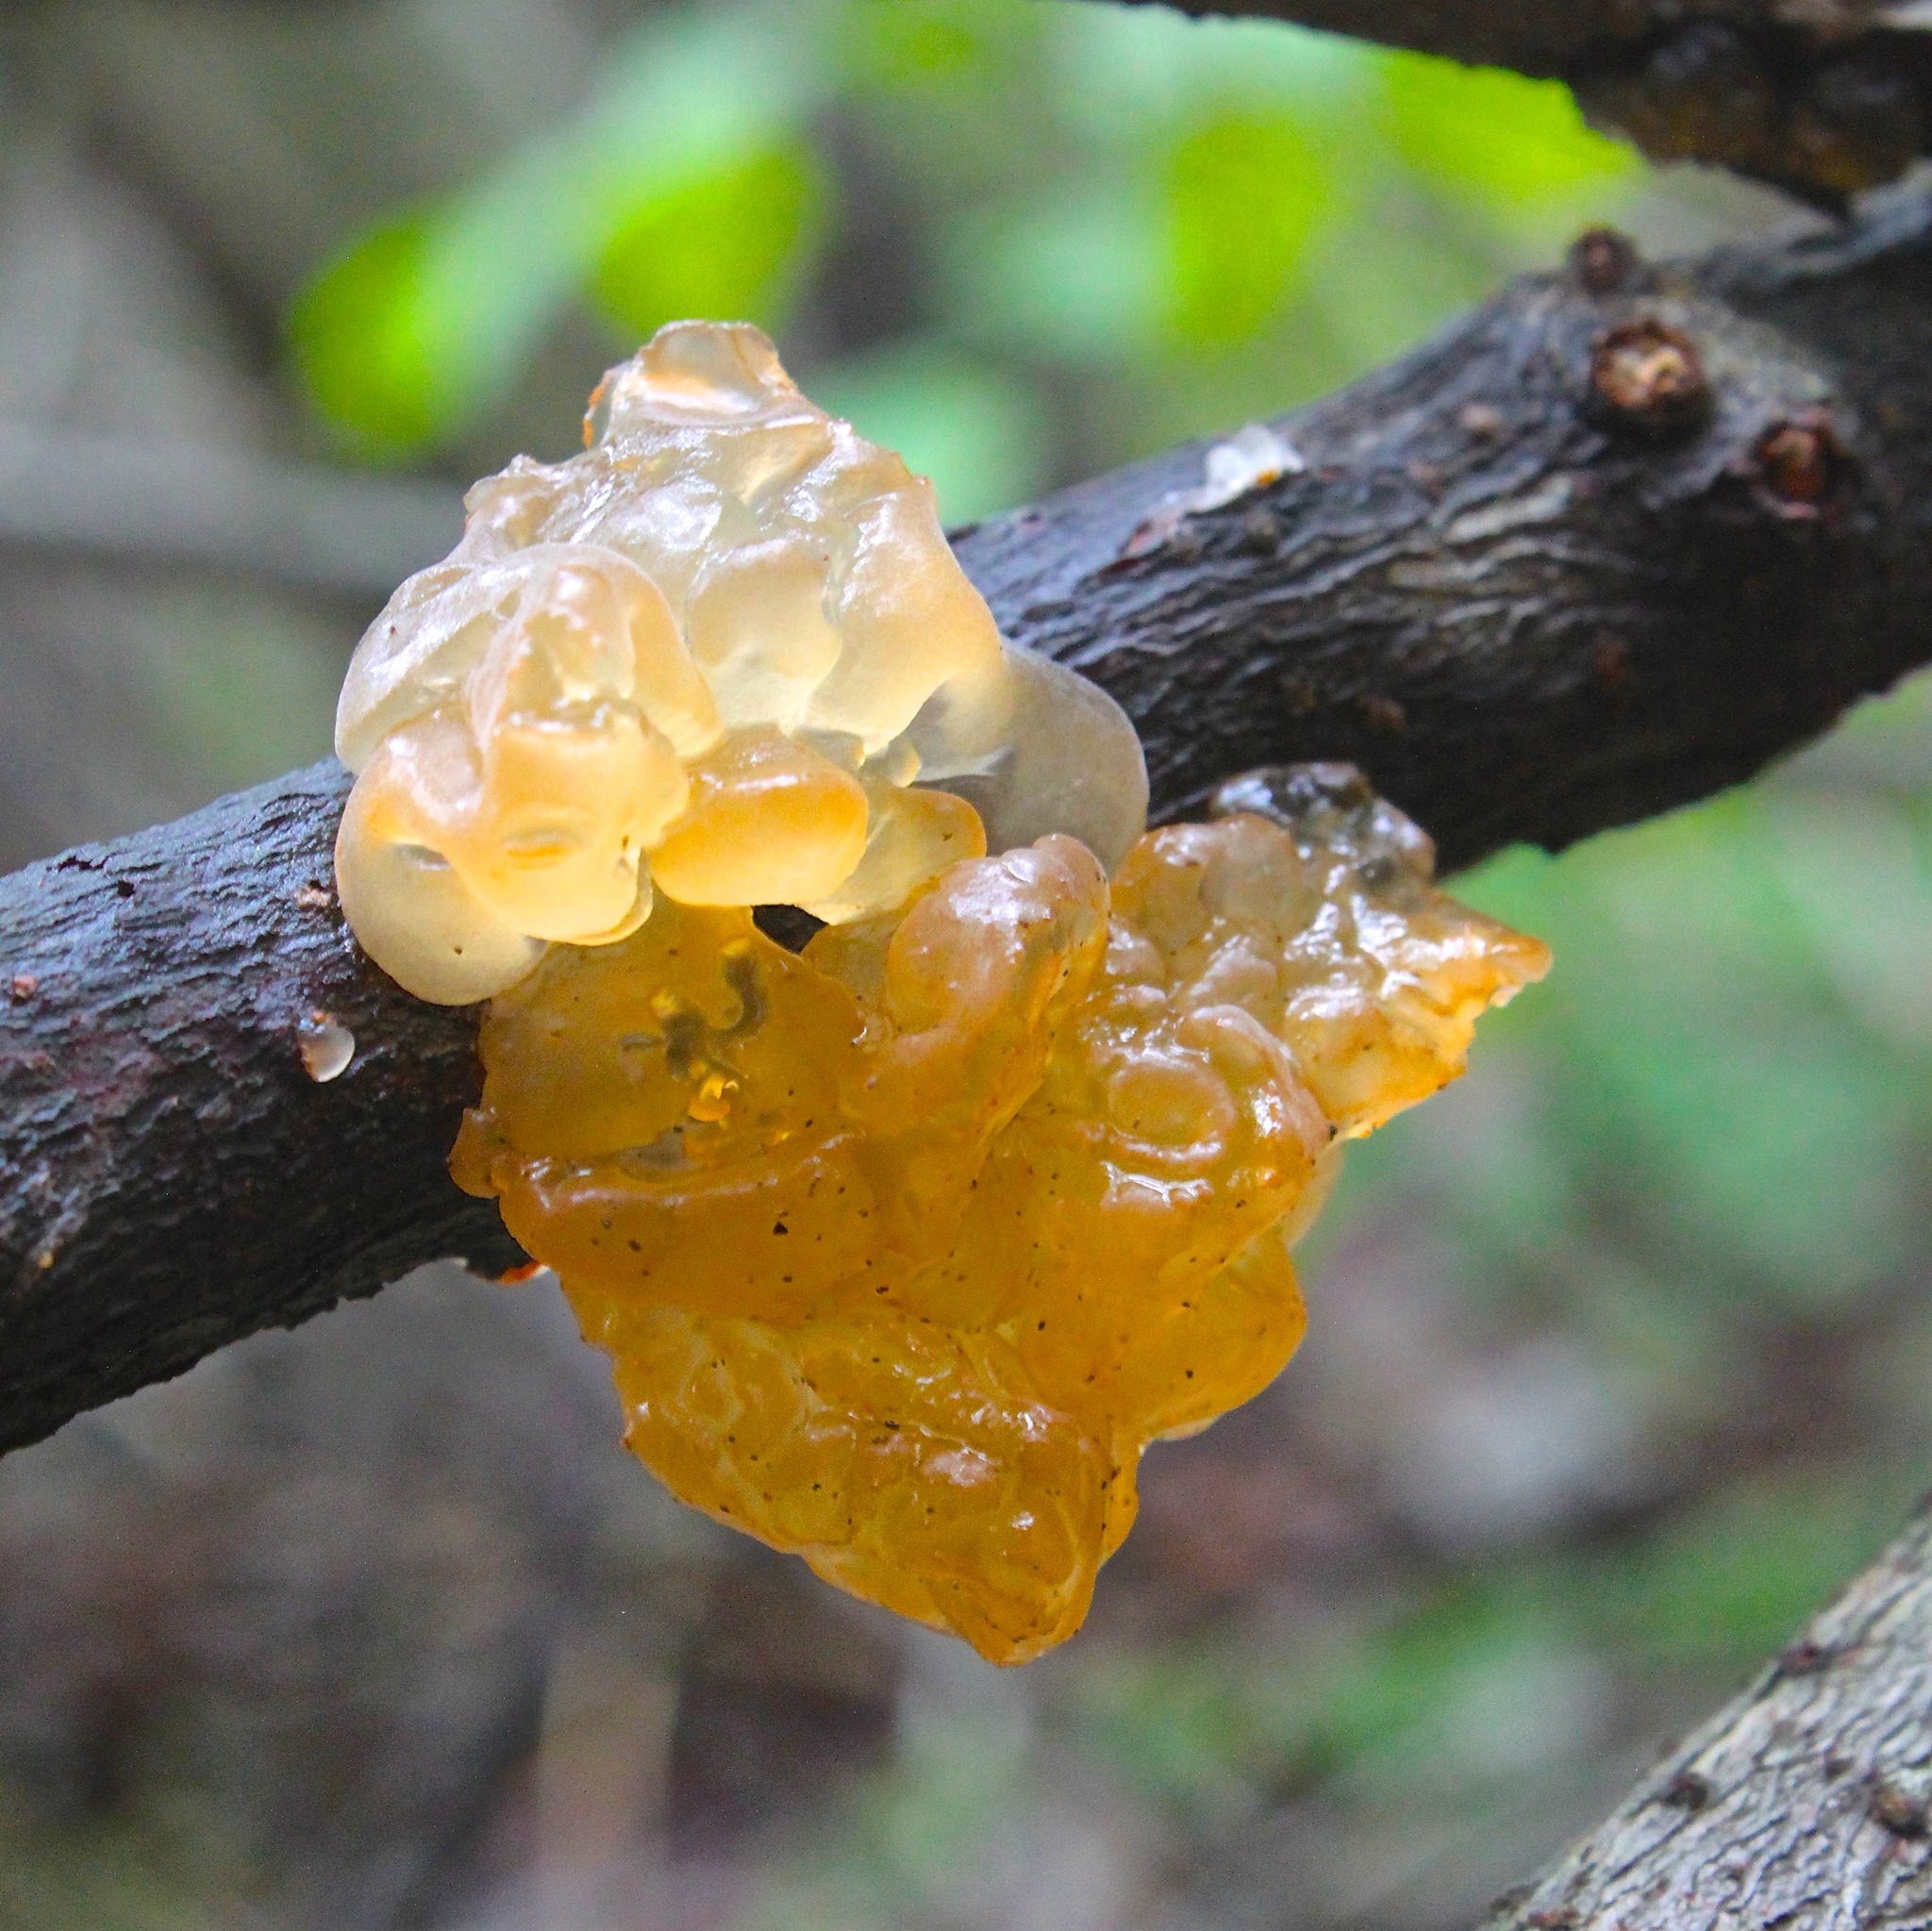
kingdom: Fungi
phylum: Basidiomycota
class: Tremellomycetes
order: Tremellales
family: Tremellaceae
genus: Tremella
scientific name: Tremella mesenterica
